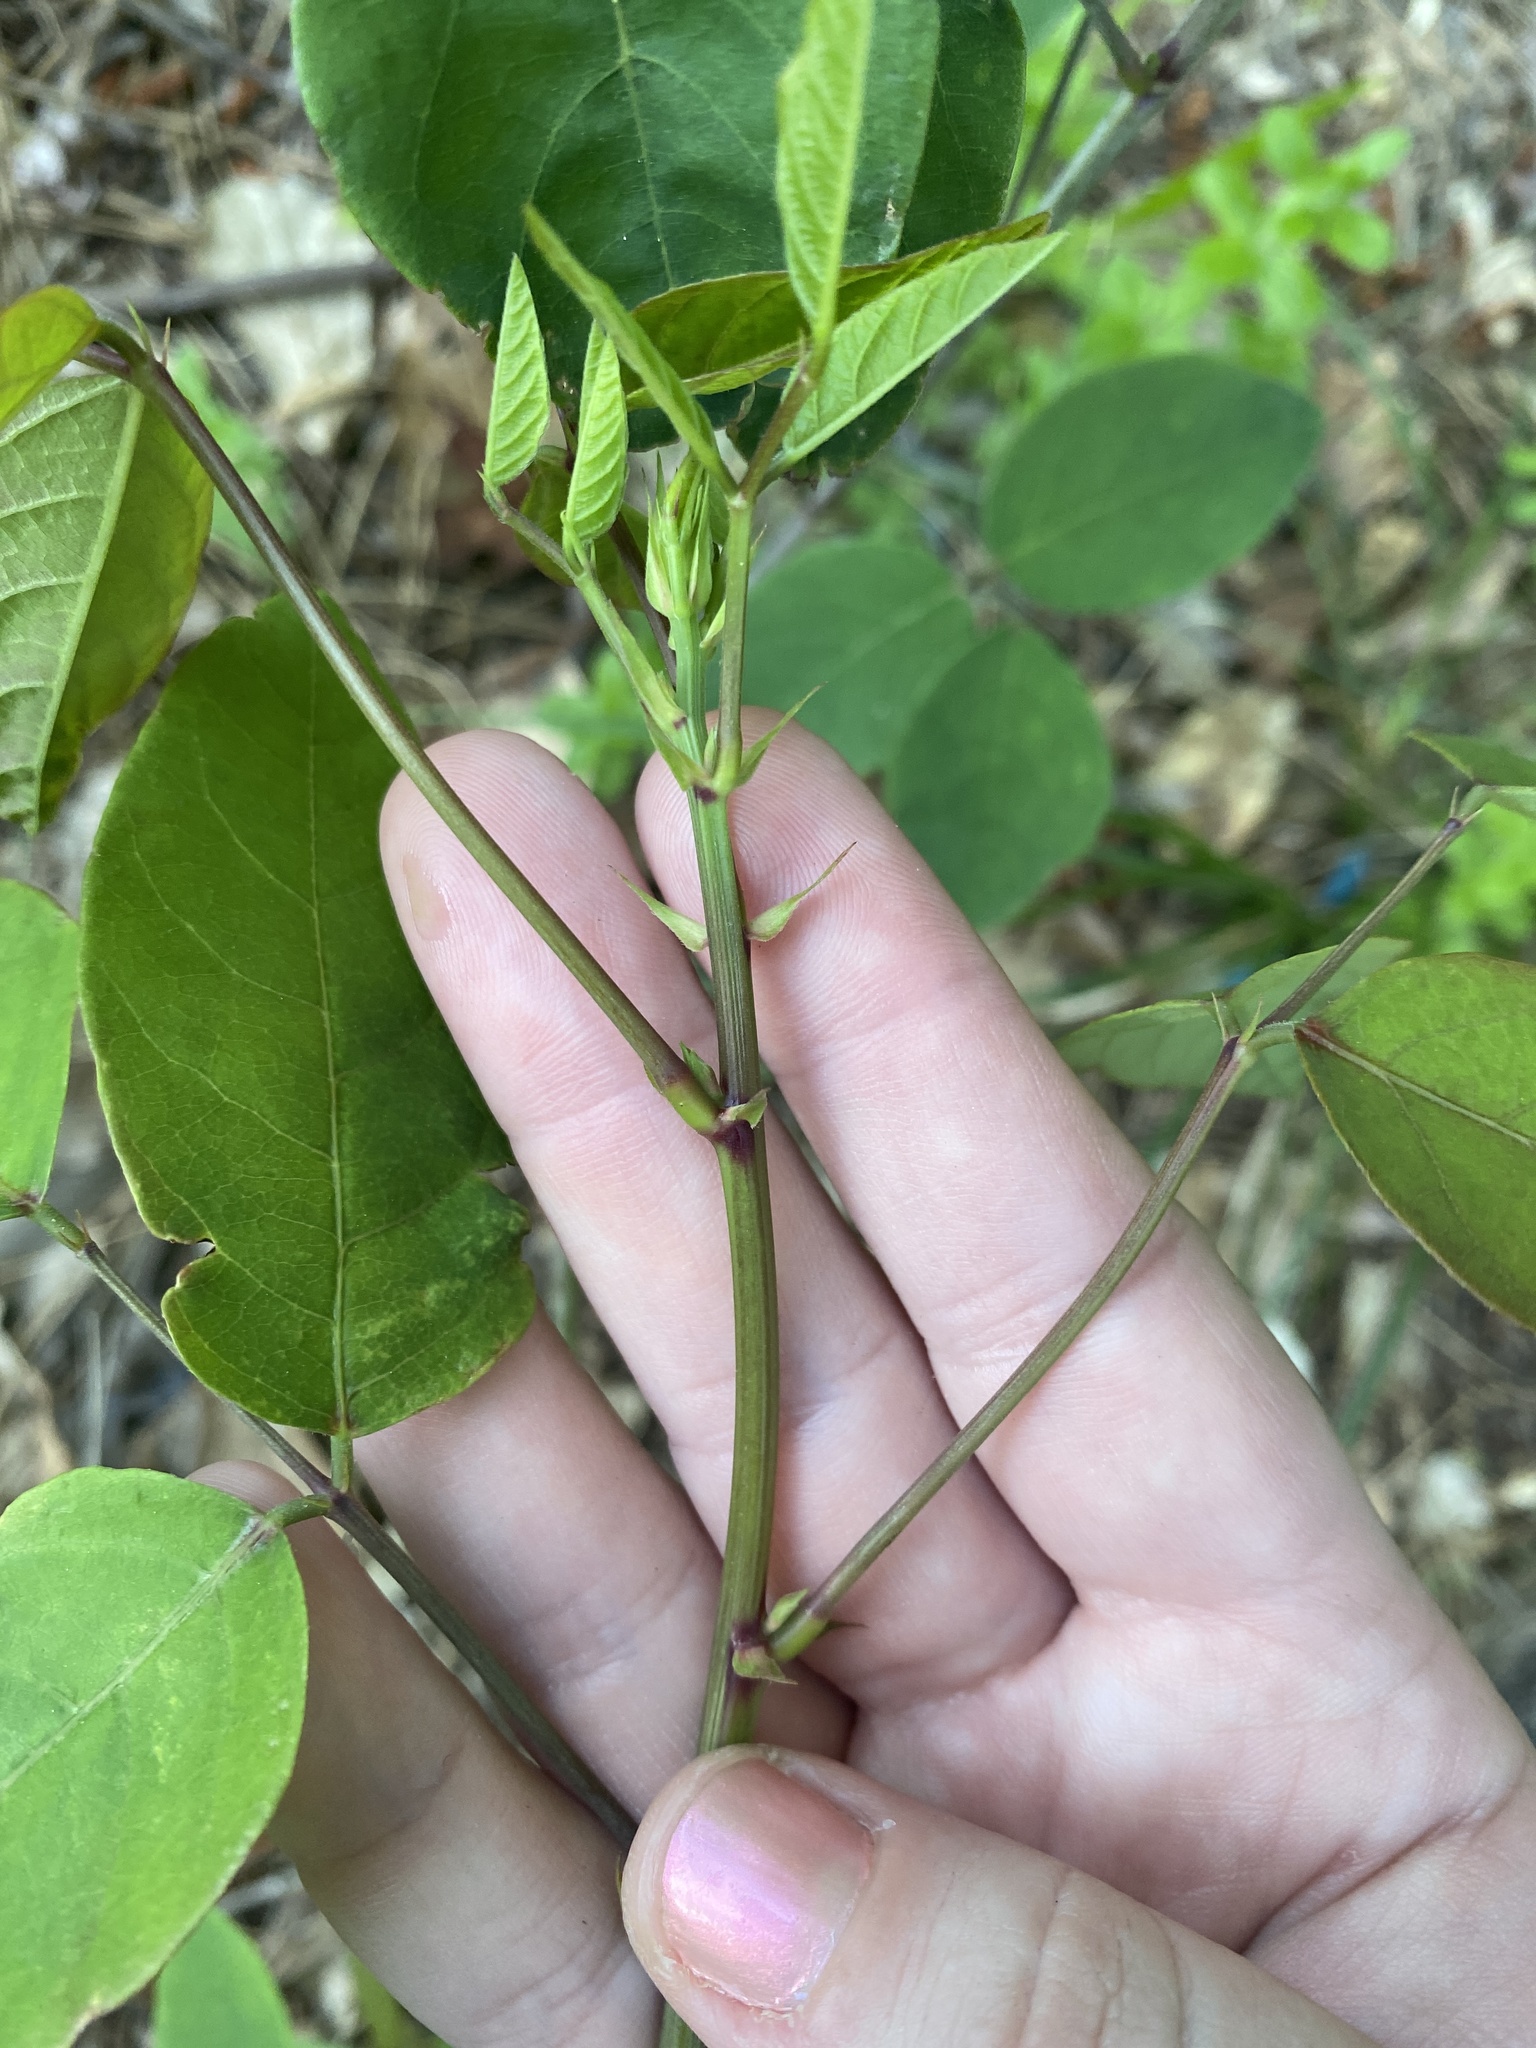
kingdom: Plantae
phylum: Tracheophyta
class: Magnoliopsida
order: Fabales
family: Fabaceae
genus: Lespedeza
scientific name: Lespedeza bicolor
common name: Shrub lespedeza
